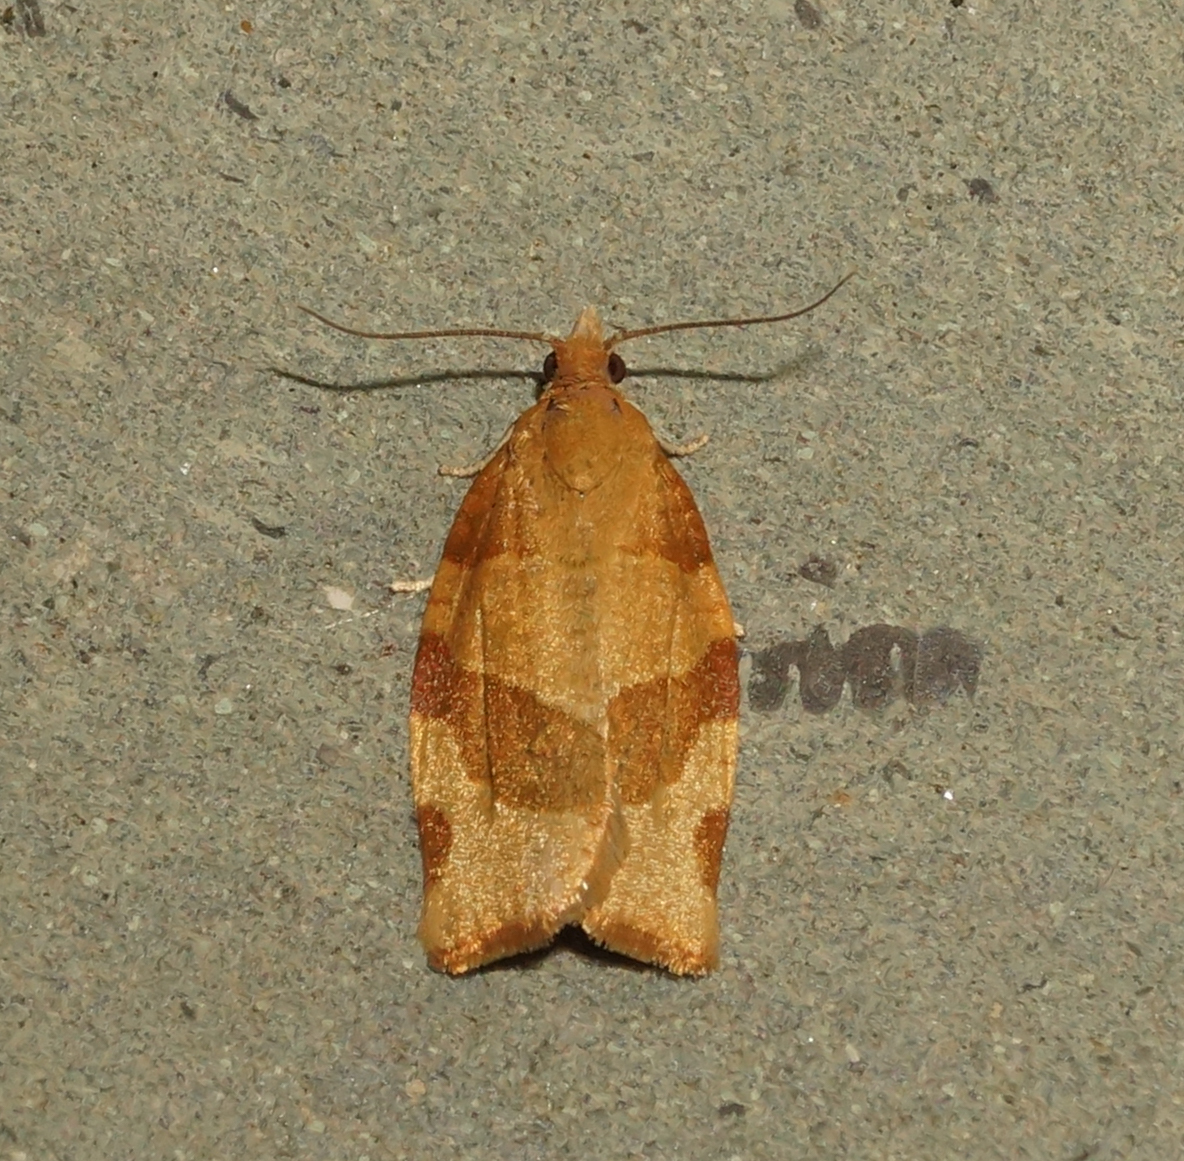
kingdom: Animalia
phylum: Arthropoda
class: Insecta
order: Lepidoptera
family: Tortricidae
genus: Pandemis
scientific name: Pandemis cerasana
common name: Barred fruit-tree tortrix
